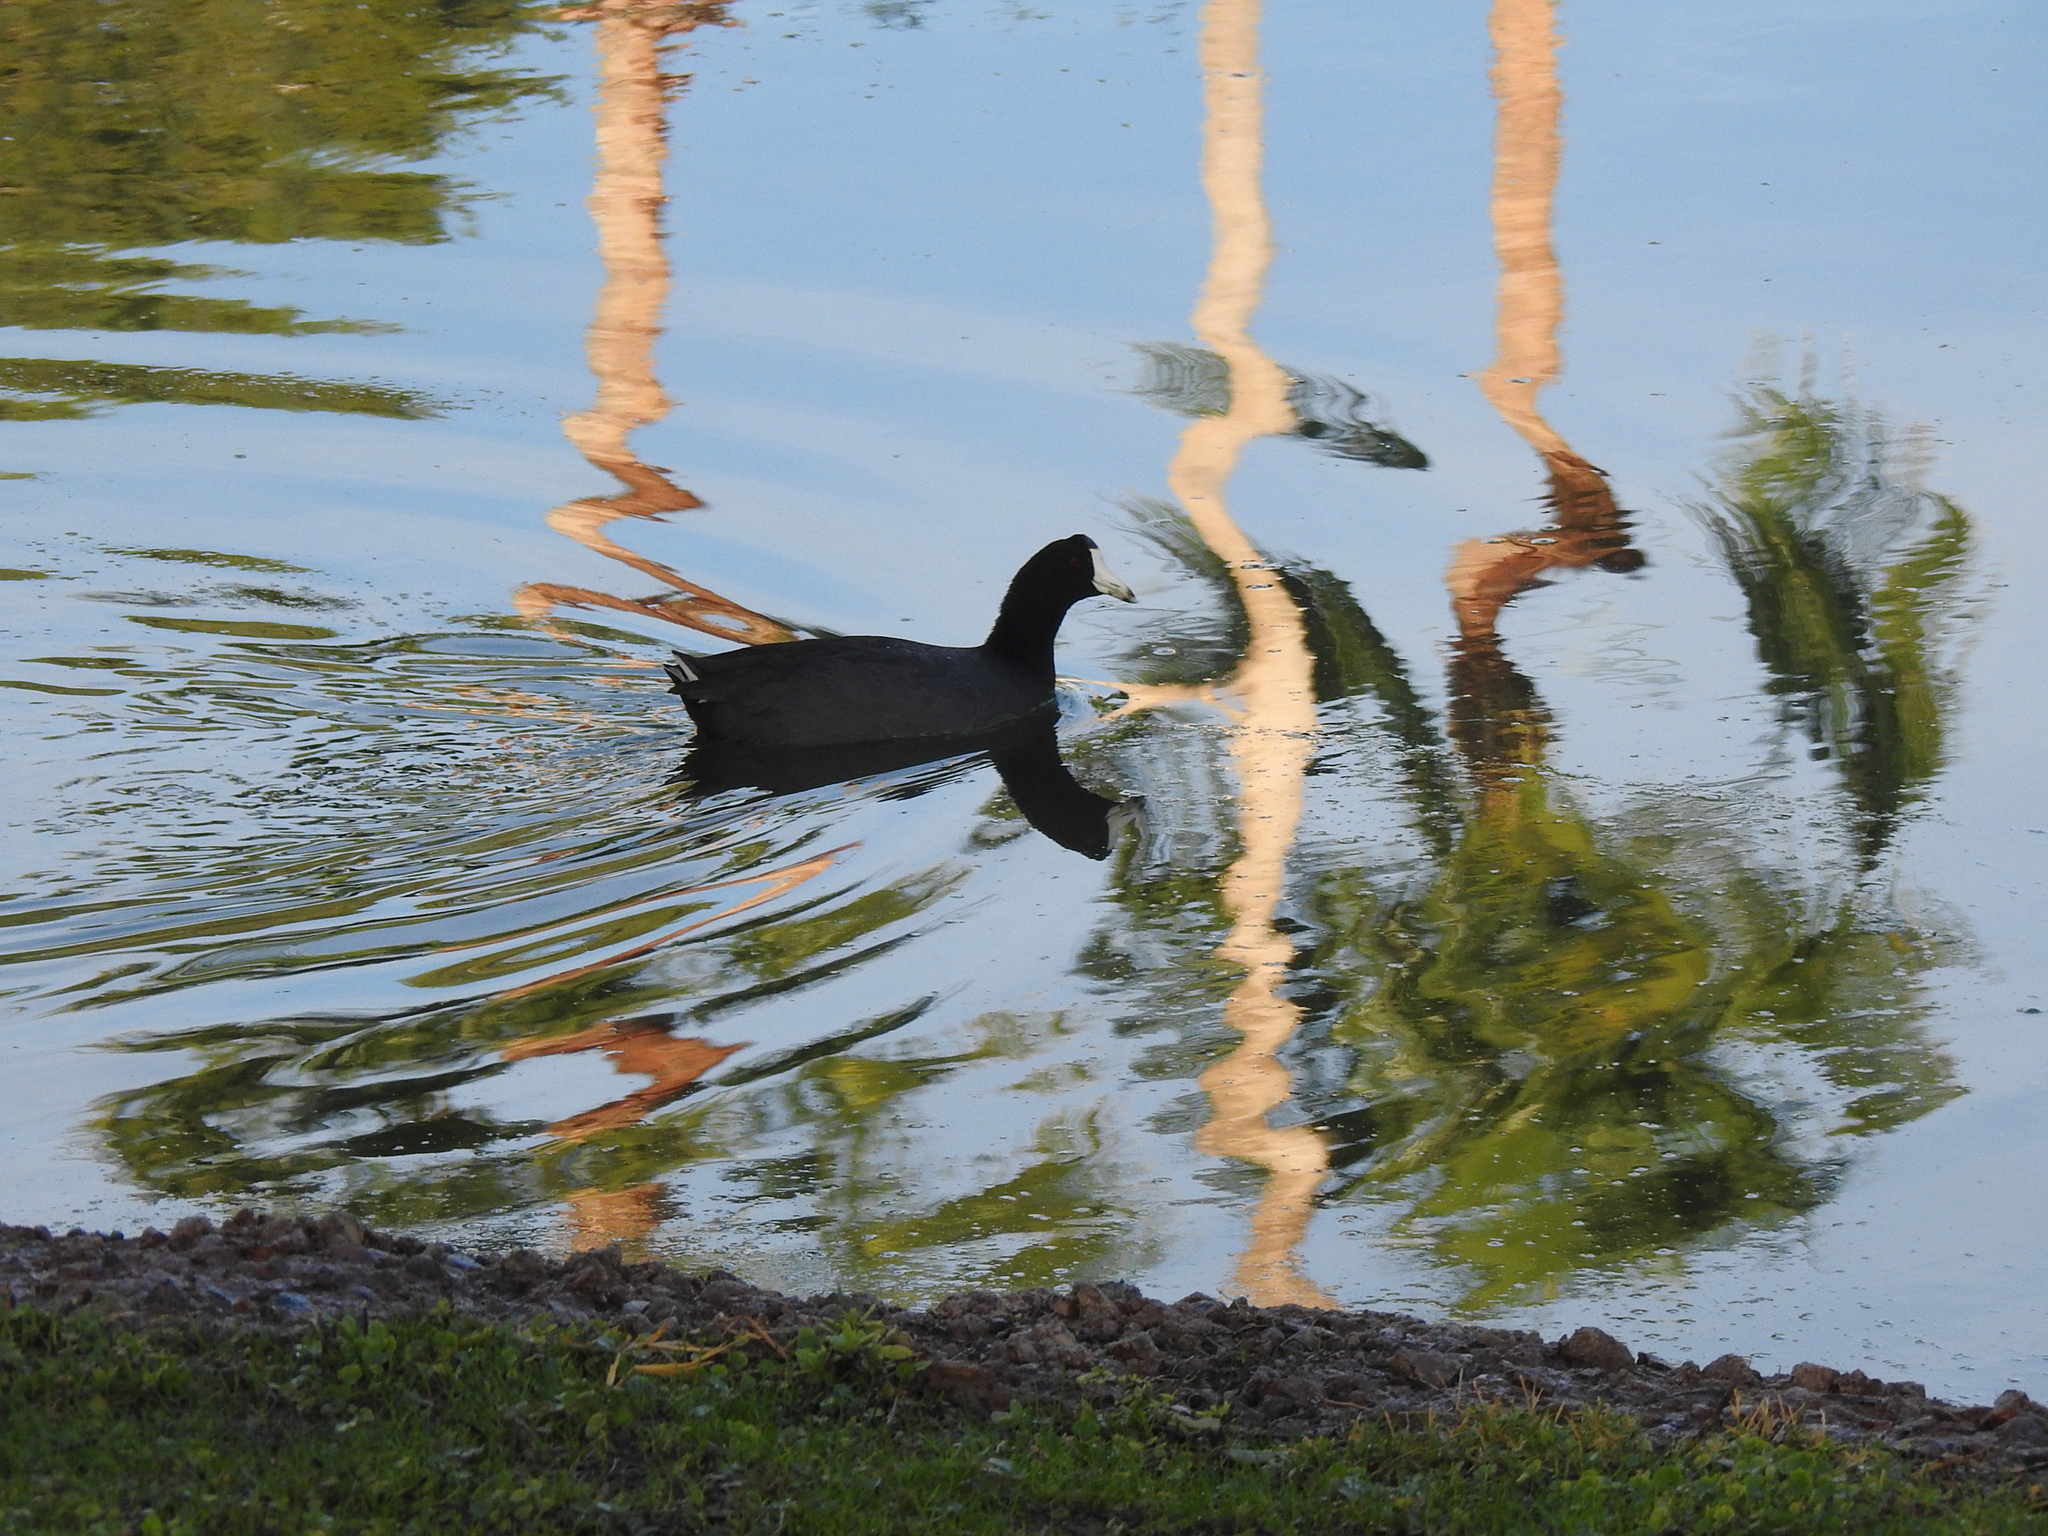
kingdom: Animalia
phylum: Chordata
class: Aves
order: Gruiformes
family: Rallidae
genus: Fulica
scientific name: Fulica americana
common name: American coot
